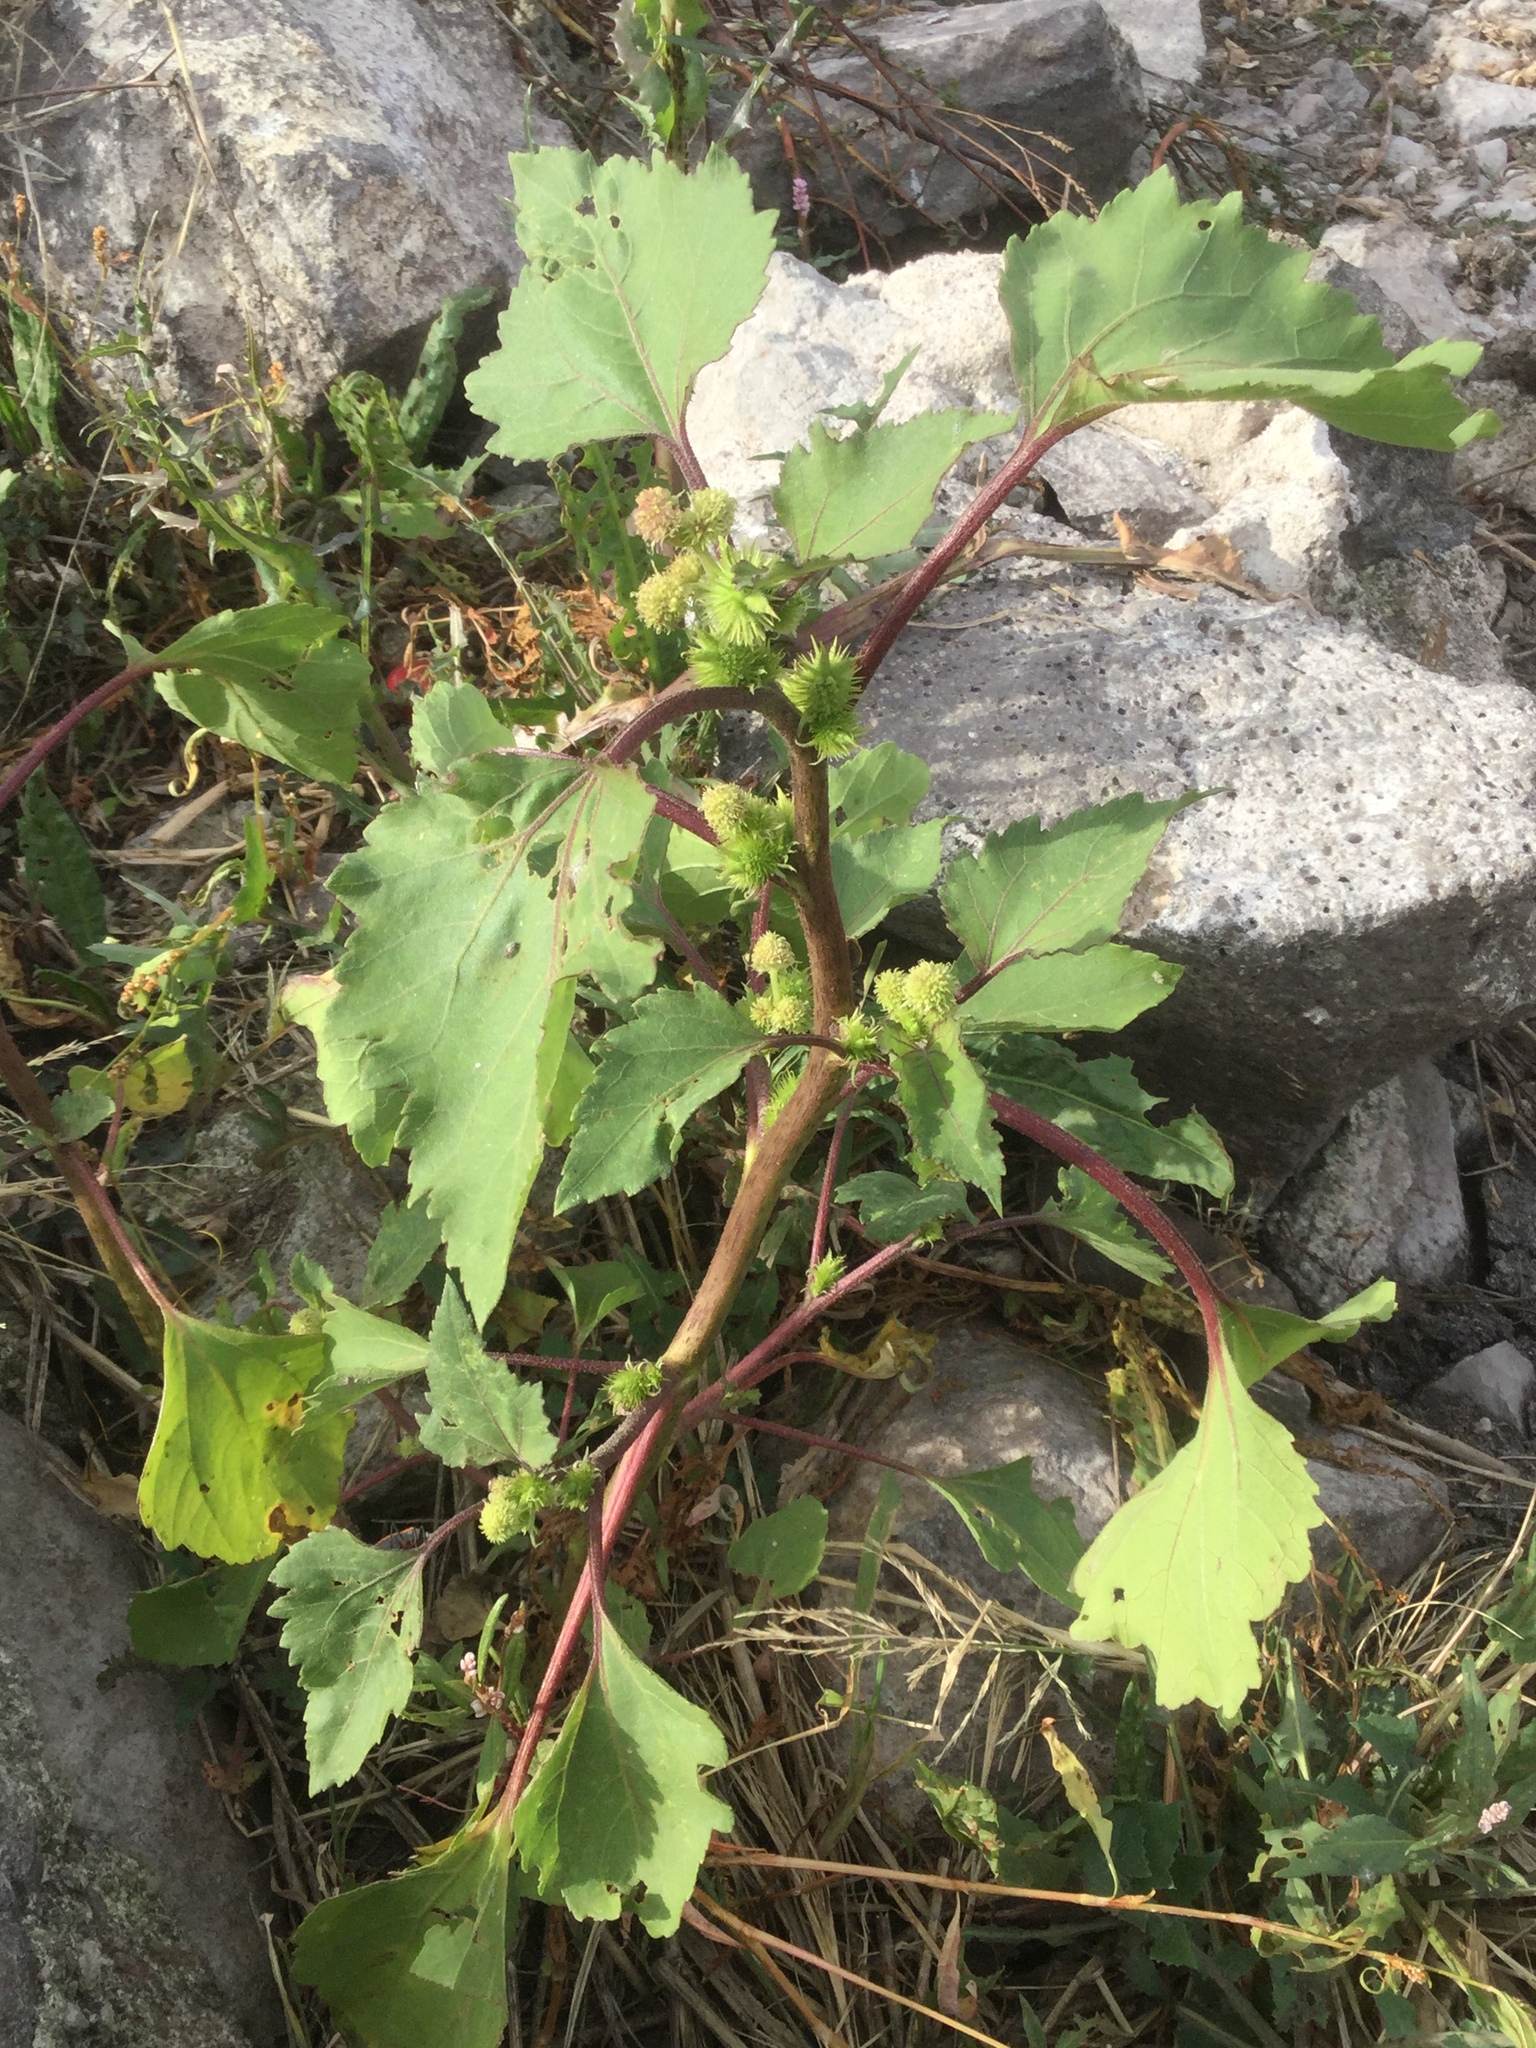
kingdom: Plantae
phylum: Tracheophyta
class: Magnoliopsida
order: Asterales
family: Asteraceae
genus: Xanthium
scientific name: Xanthium strumarium
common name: Rough cocklebur
